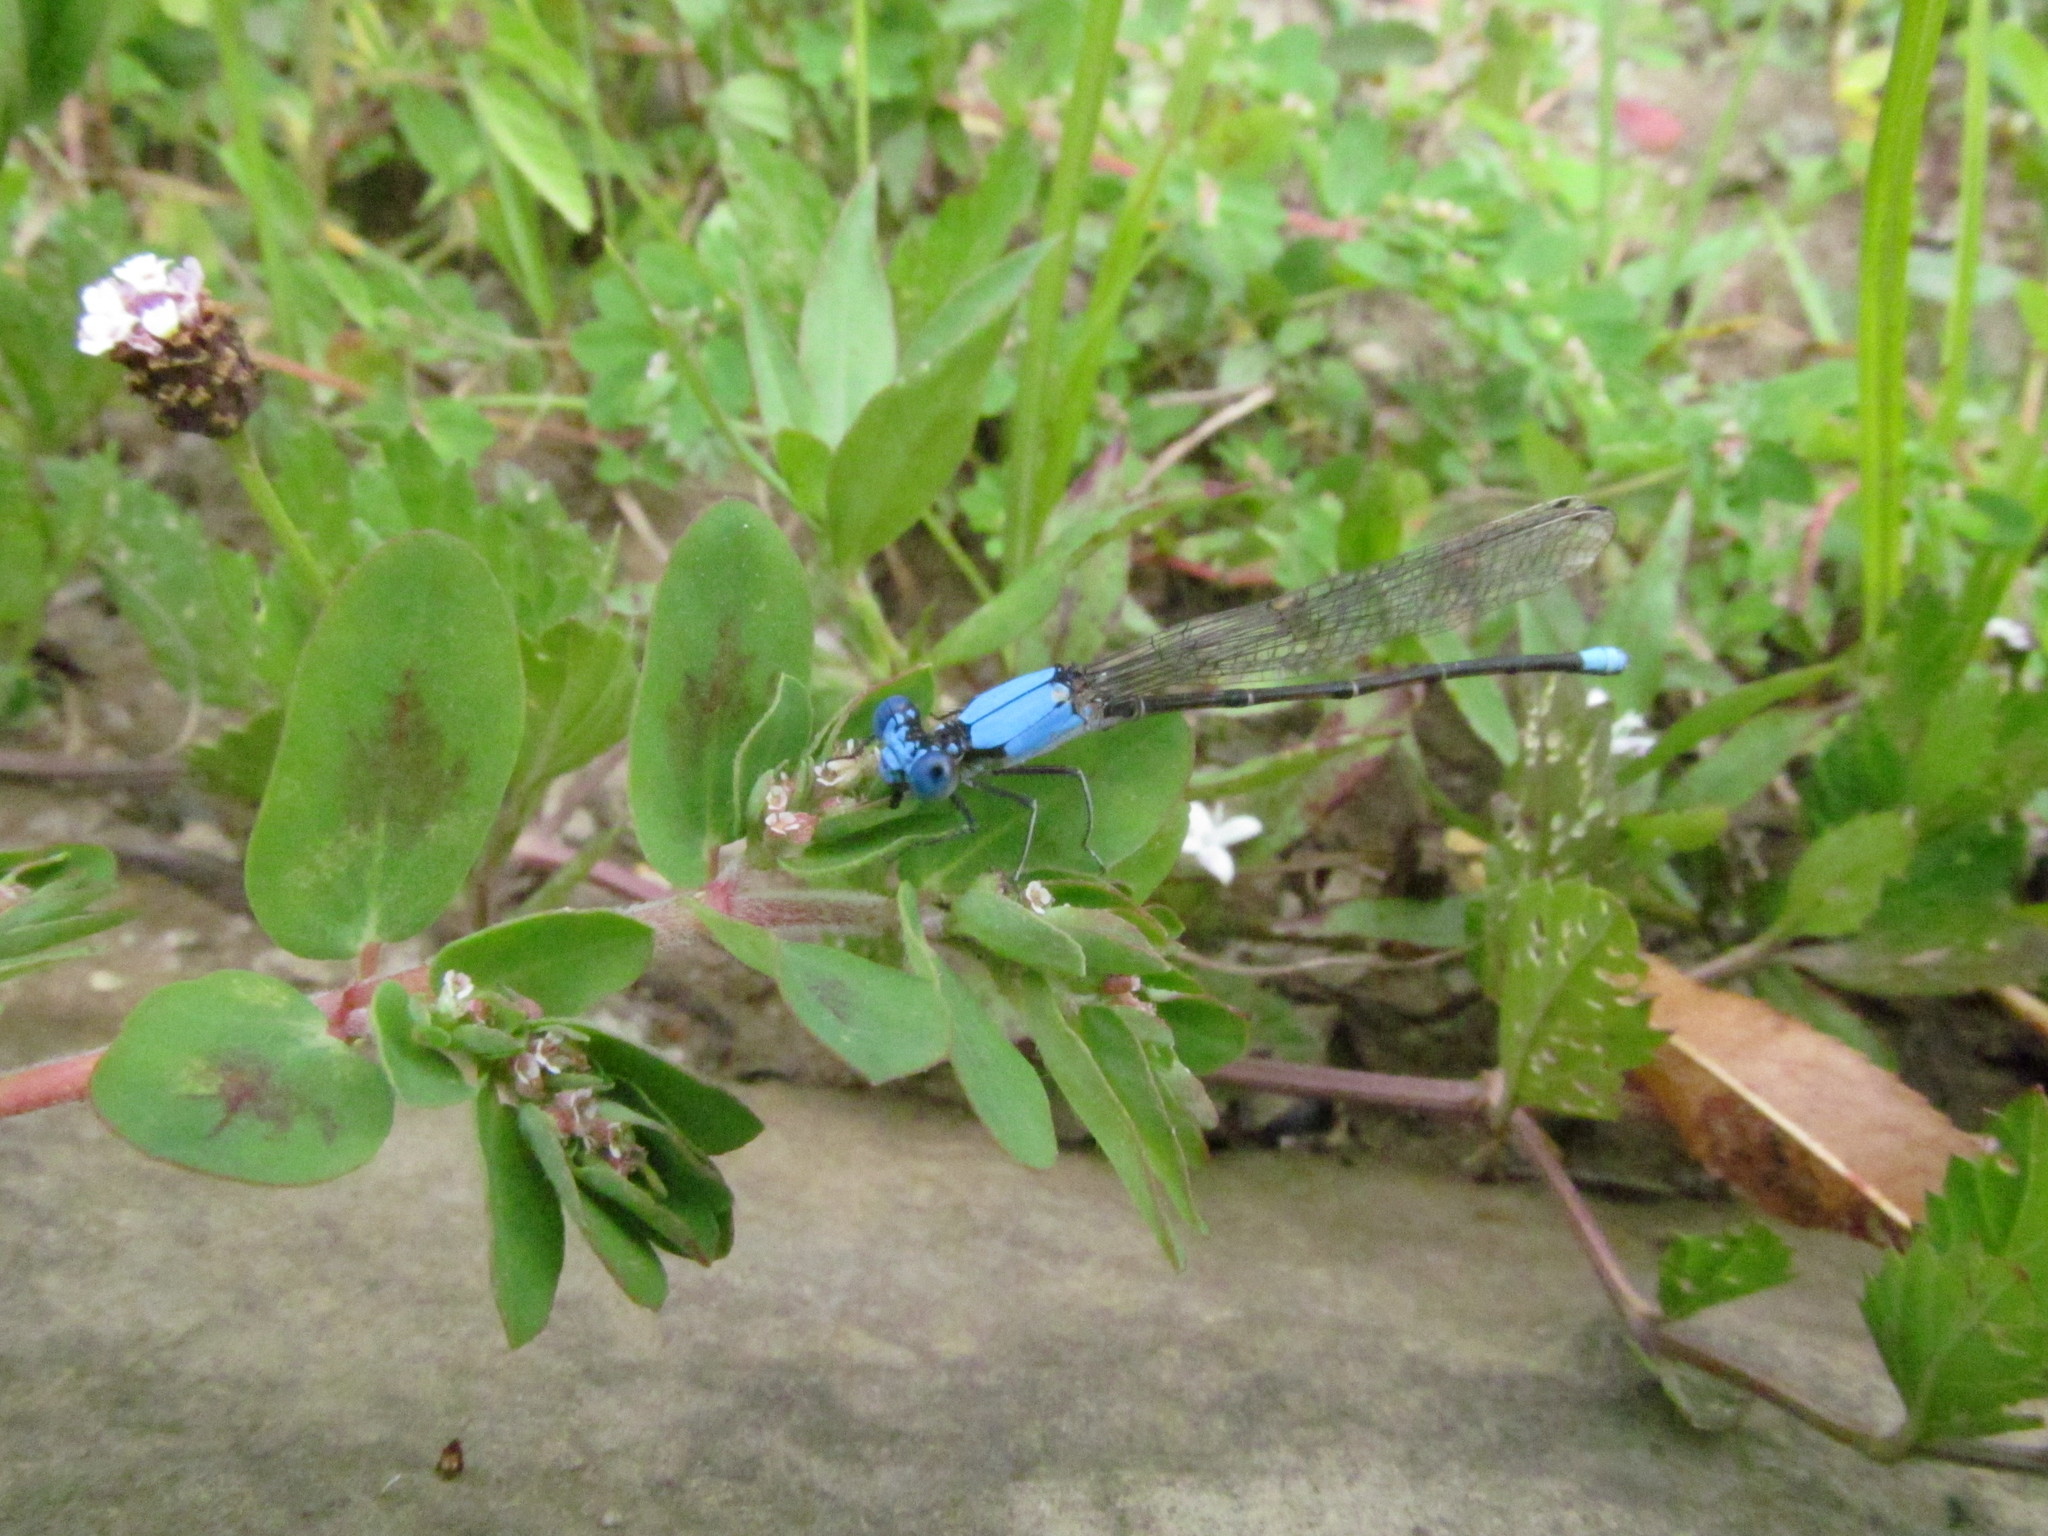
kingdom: Animalia
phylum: Arthropoda
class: Insecta
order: Odonata
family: Coenagrionidae
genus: Argia
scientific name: Argia apicalis
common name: Blue-fronted dancer
